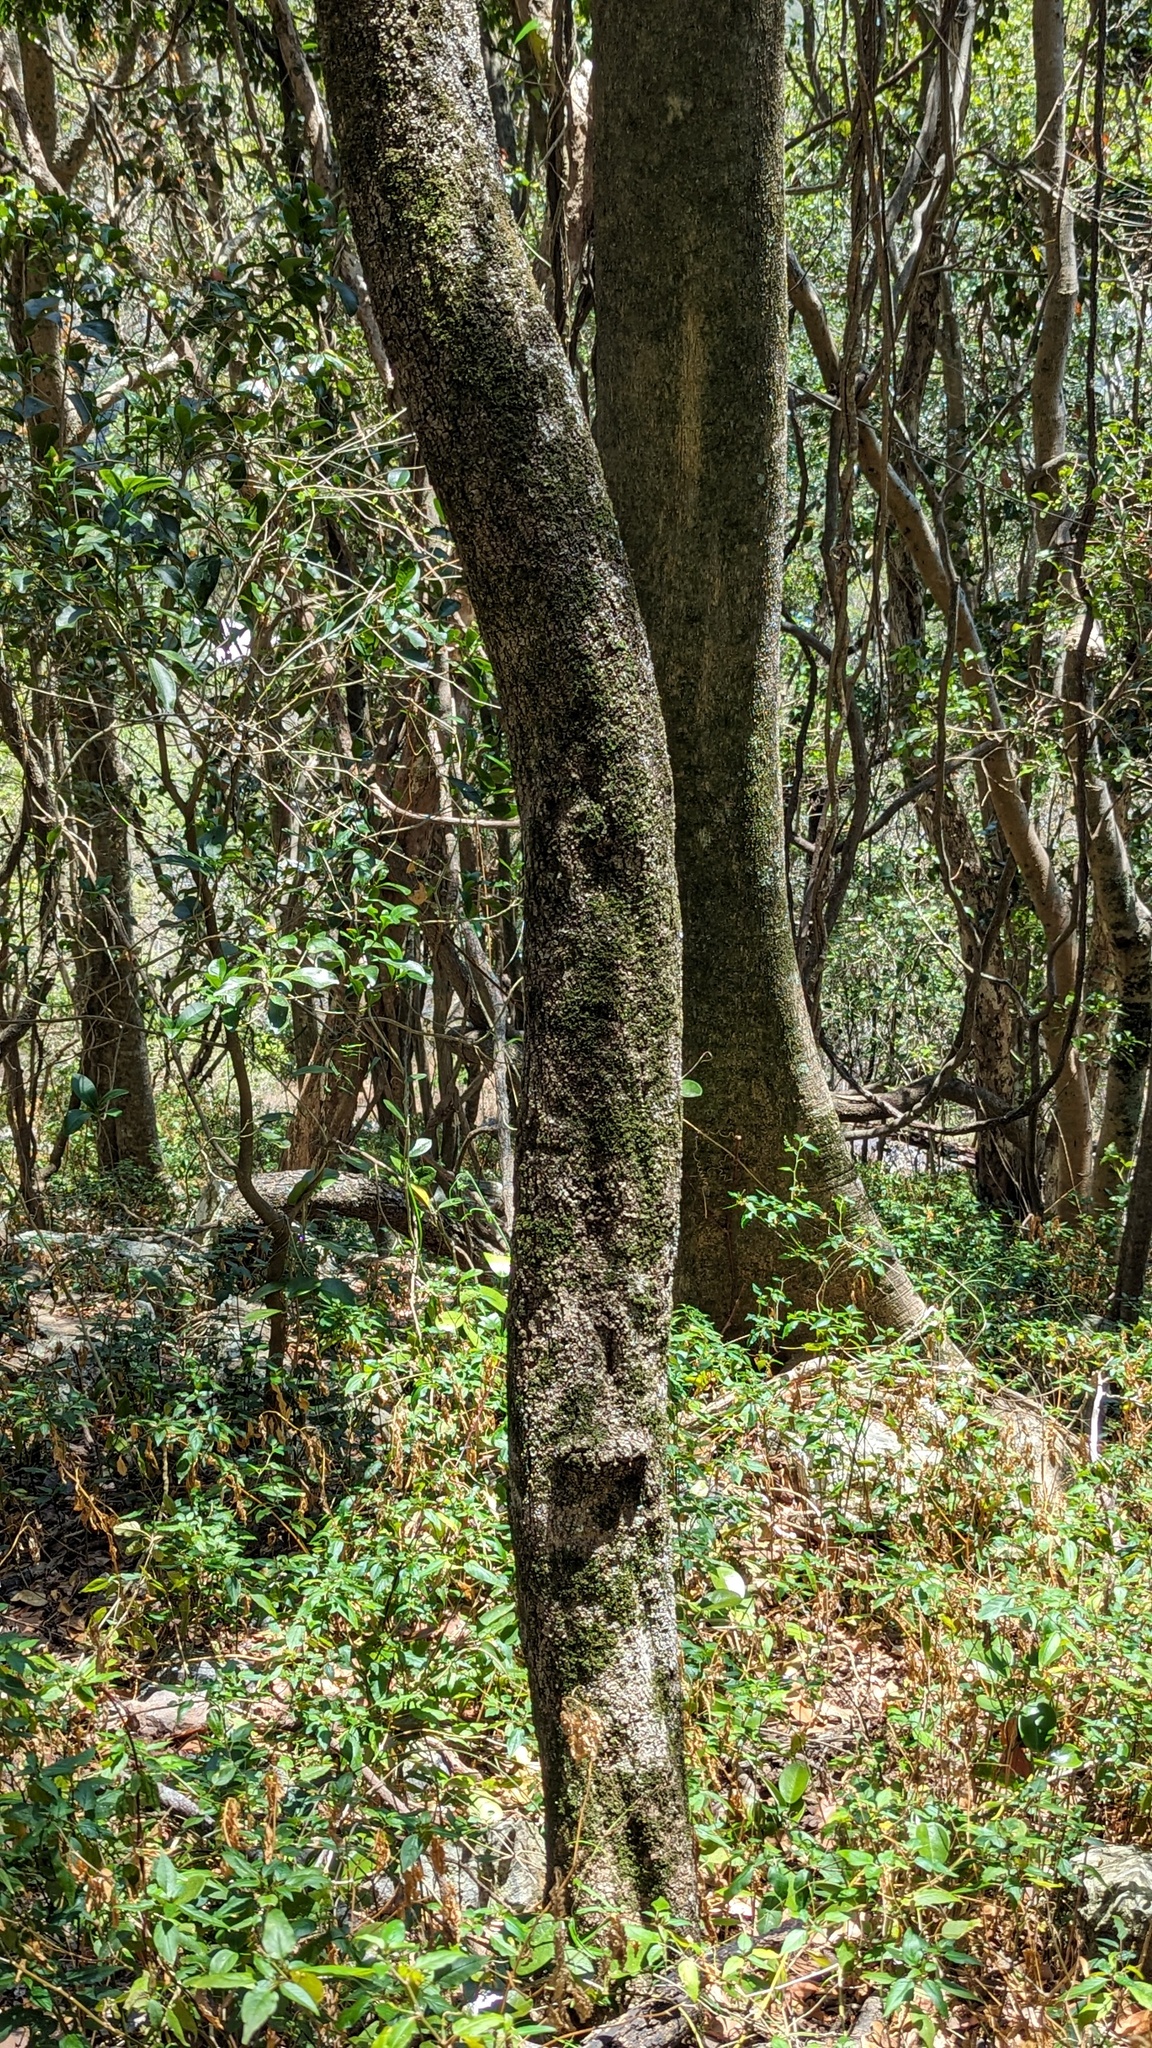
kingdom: Plantae
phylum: Tracheophyta
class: Magnoliopsida
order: Gentianales
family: Rubiaceae
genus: Psydrax
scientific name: Psydrax odoratus
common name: Alahe'e
